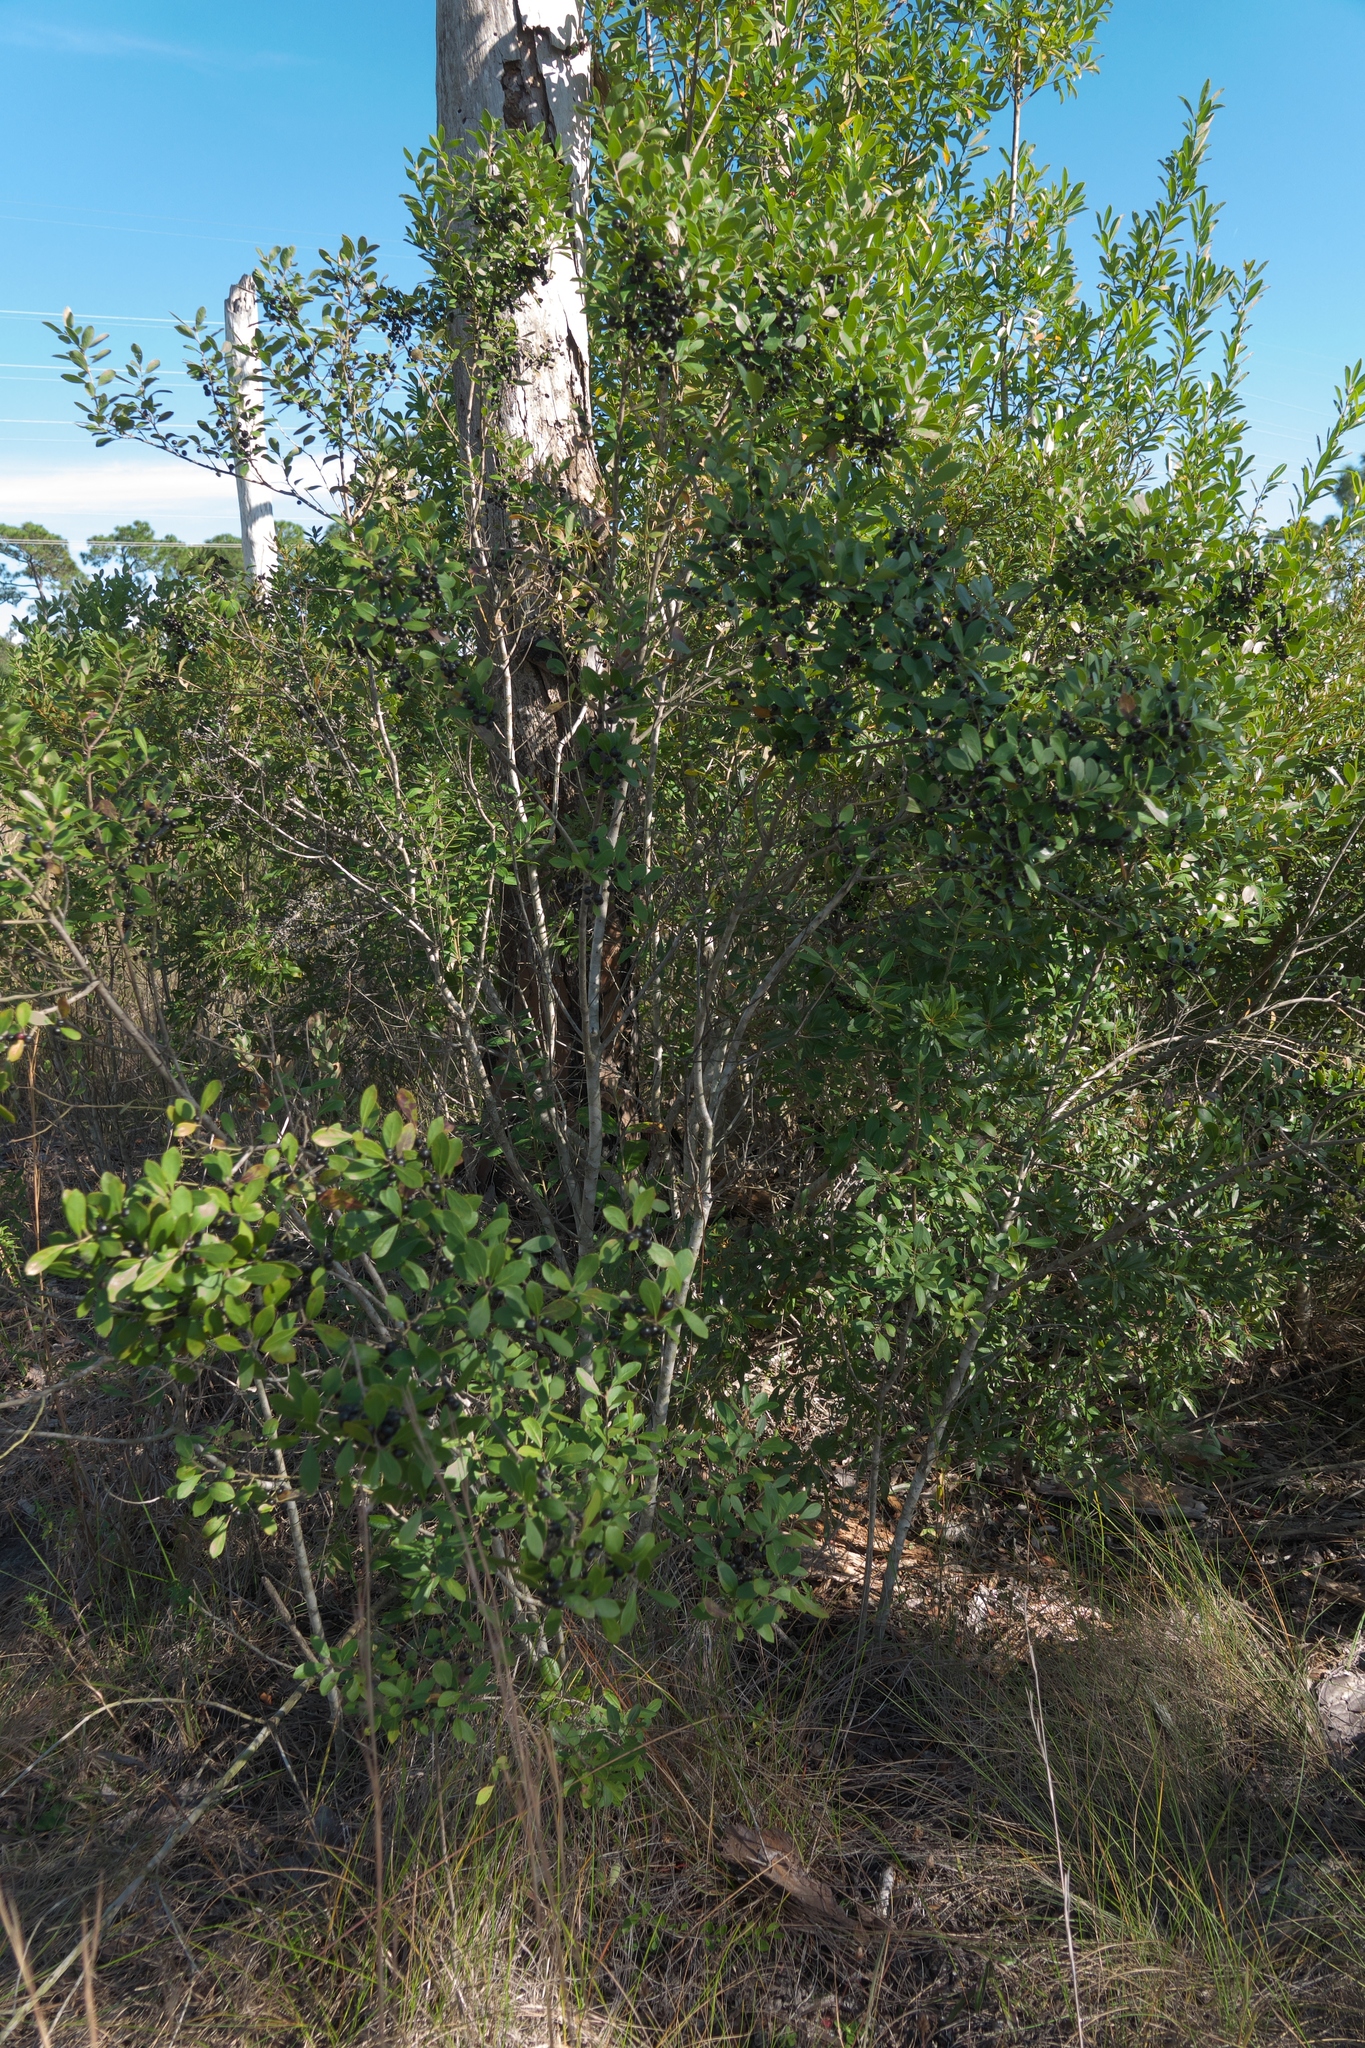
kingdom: Plantae
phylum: Tracheophyta
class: Magnoliopsida
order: Aquifoliales
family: Aquifoliaceae
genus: Ilex
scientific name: Ilex glabra
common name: Bitter gallberry
